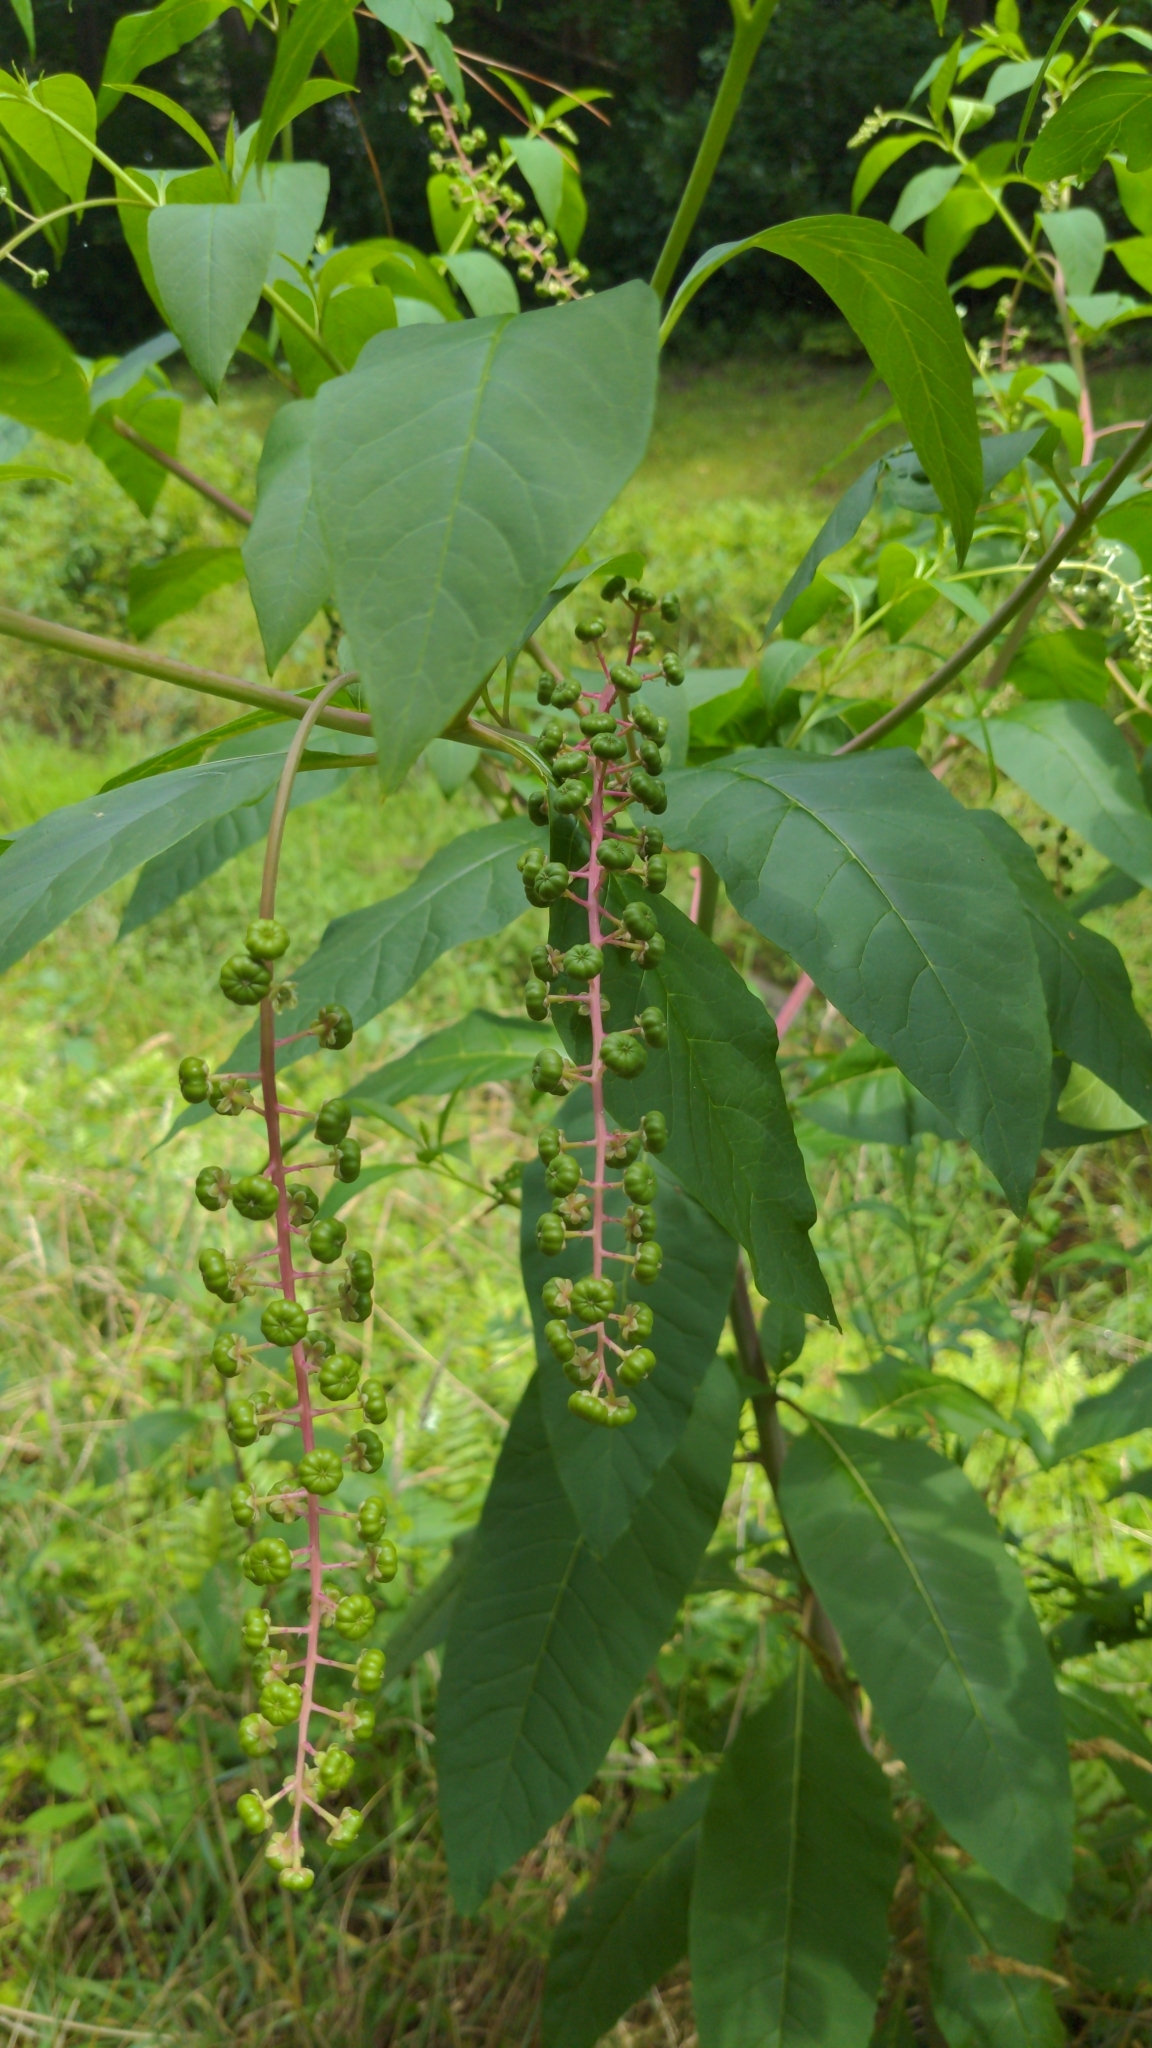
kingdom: Plantae
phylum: Tracheophyta
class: Magnoliopsida
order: Caryophyllales
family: Phytolaccaceae
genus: Phytolacca
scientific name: Phytolacca americana
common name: American pokeweed
